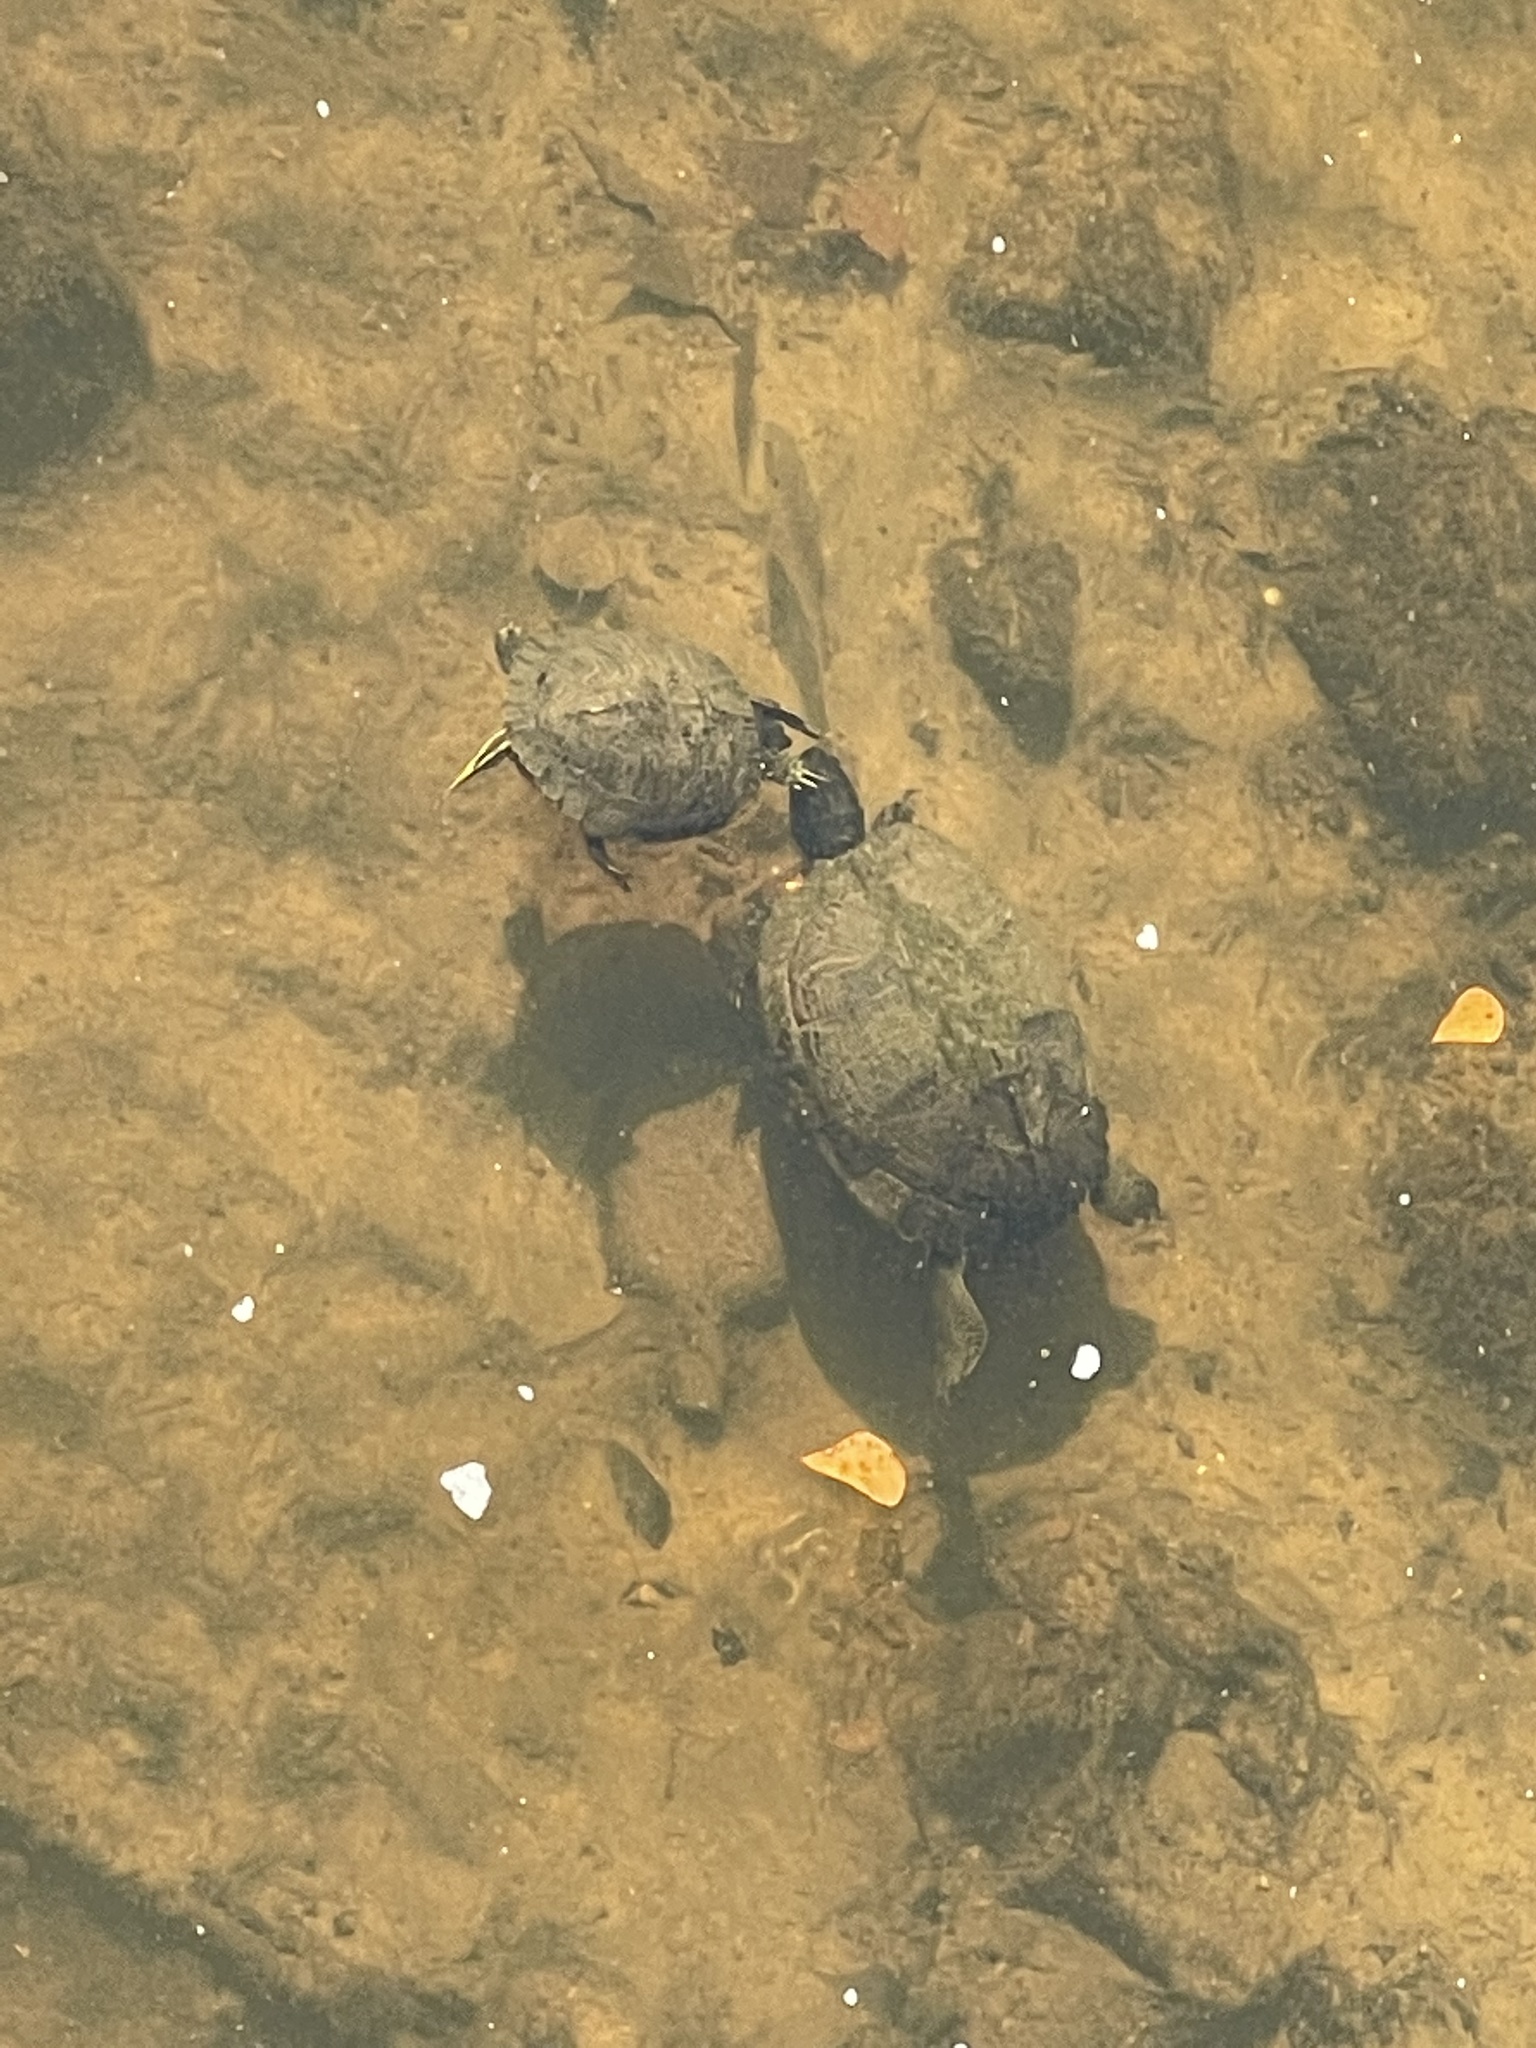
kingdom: Animalia
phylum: Chordata
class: Testudines
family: Emydidae
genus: Trachemys
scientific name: Trachemys scripta
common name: Slider
